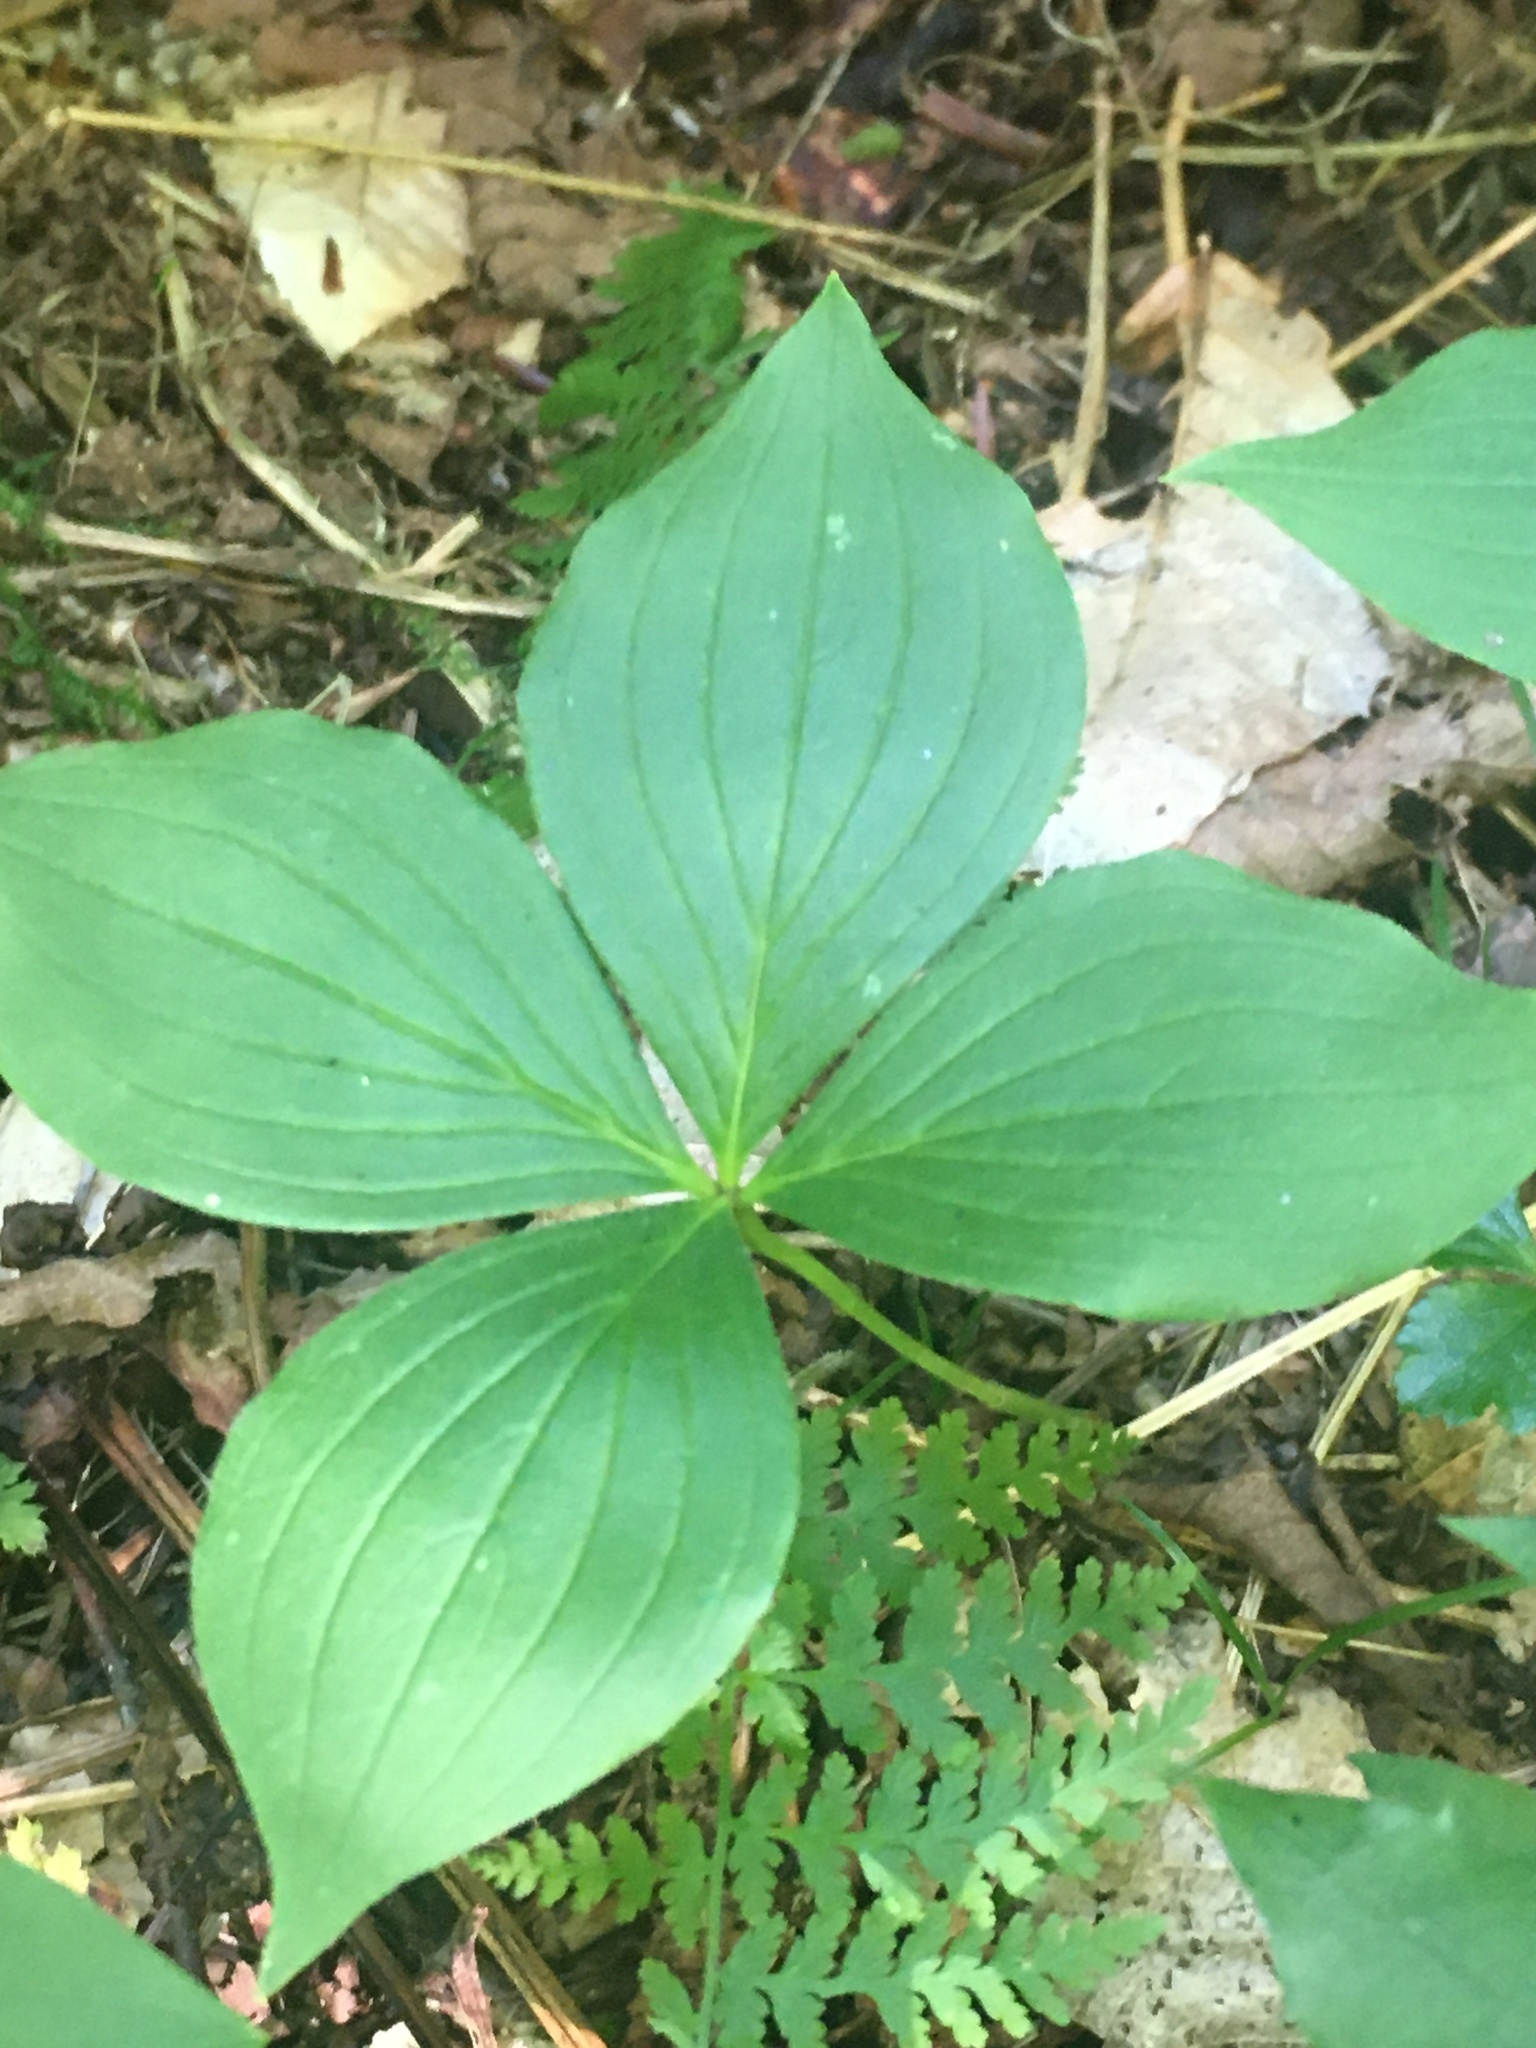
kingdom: Plantae
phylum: Tracheophyta
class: Magnoliopsida
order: Cornales
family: Cornaceae
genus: Cornus
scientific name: Cornus canadensis
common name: Creeping dogwood
